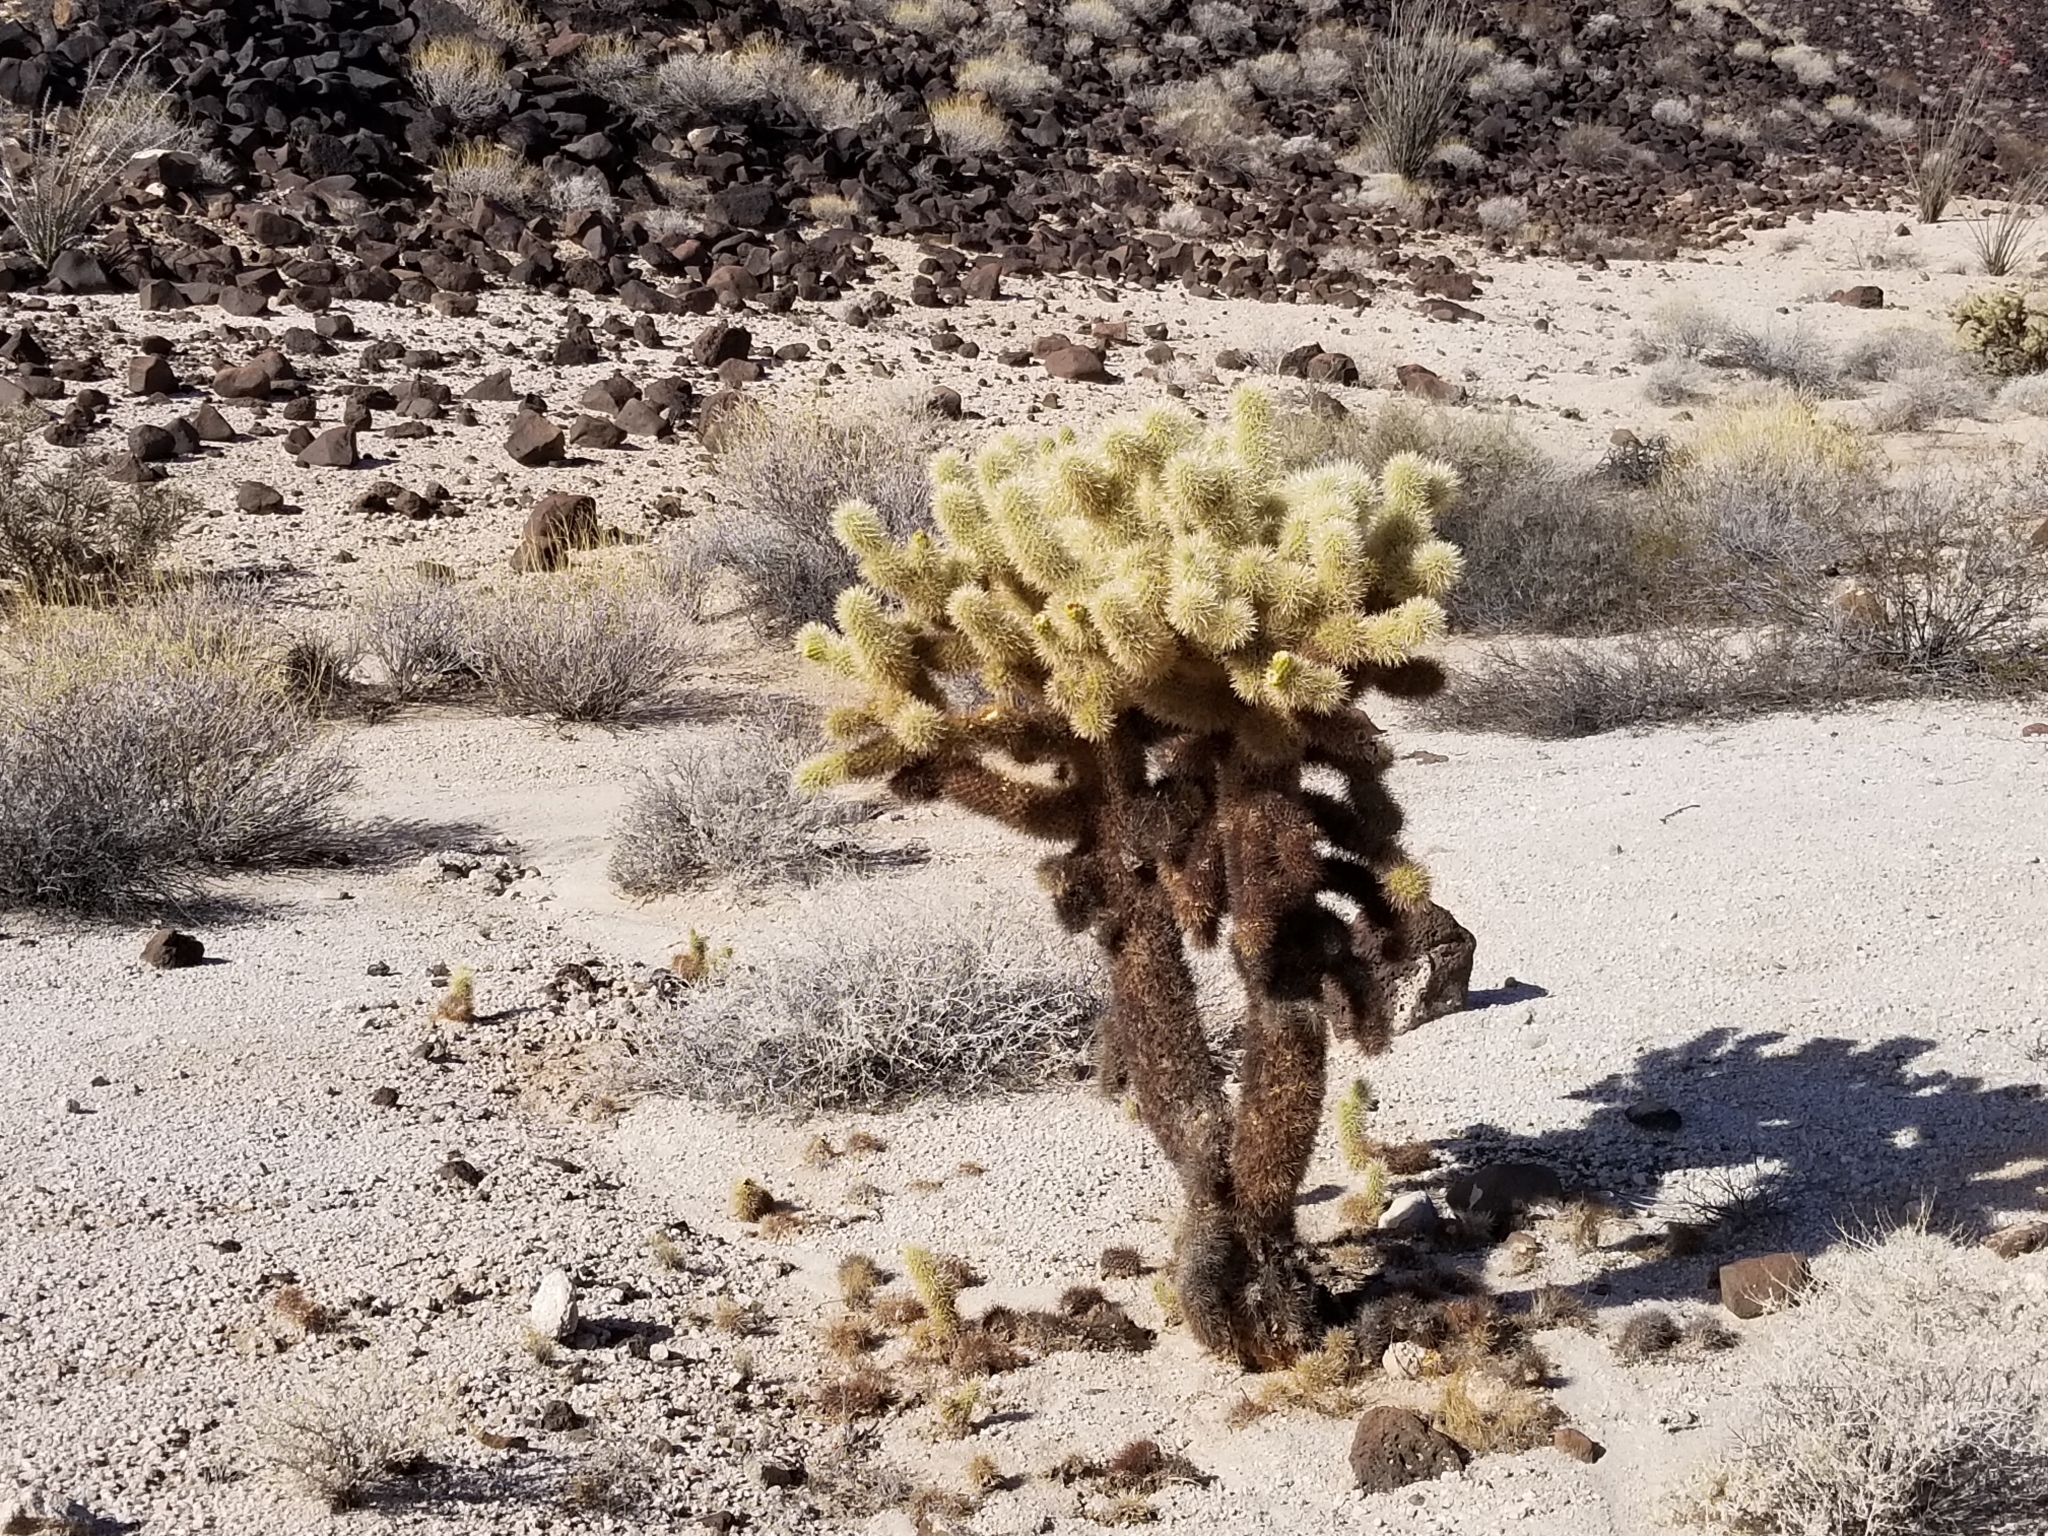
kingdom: Plantae
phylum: Tracheophyta
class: Magnoliopsida
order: Caryophyllales
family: Cactaceae
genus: Cylindropuntia
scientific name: Cylindropuntia fosbergii
